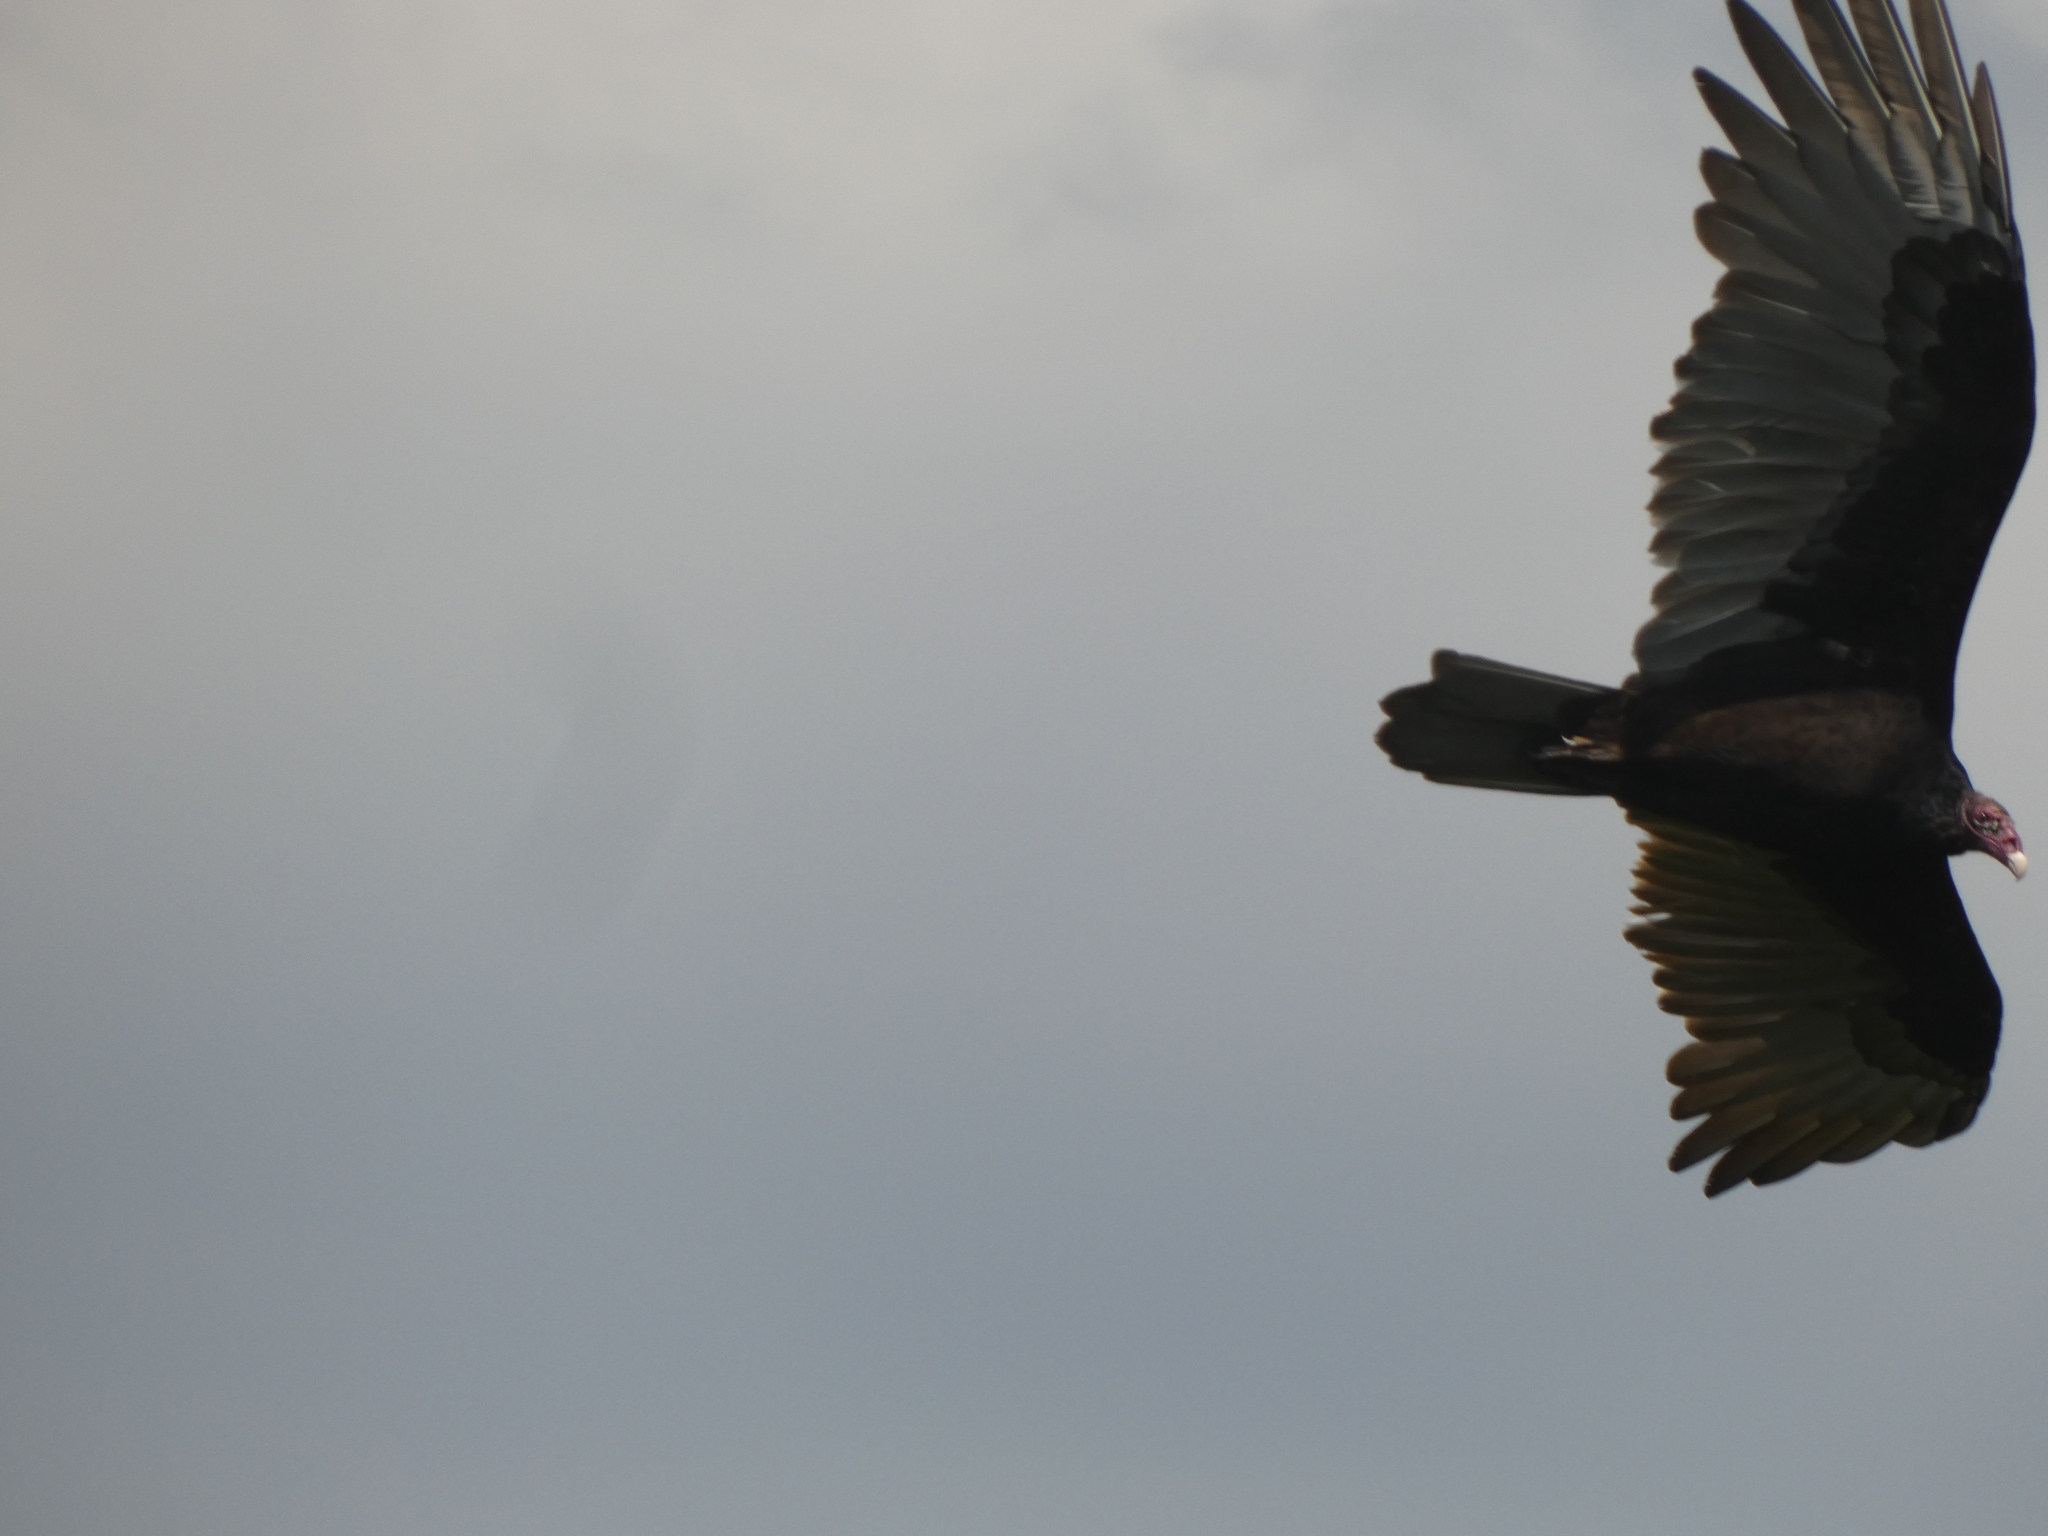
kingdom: Animalia
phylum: Chordata
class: Aves
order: Accipitriformes
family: Cathartidae
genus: Cathartes
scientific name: Cathartes aura
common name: Turkey vulture
